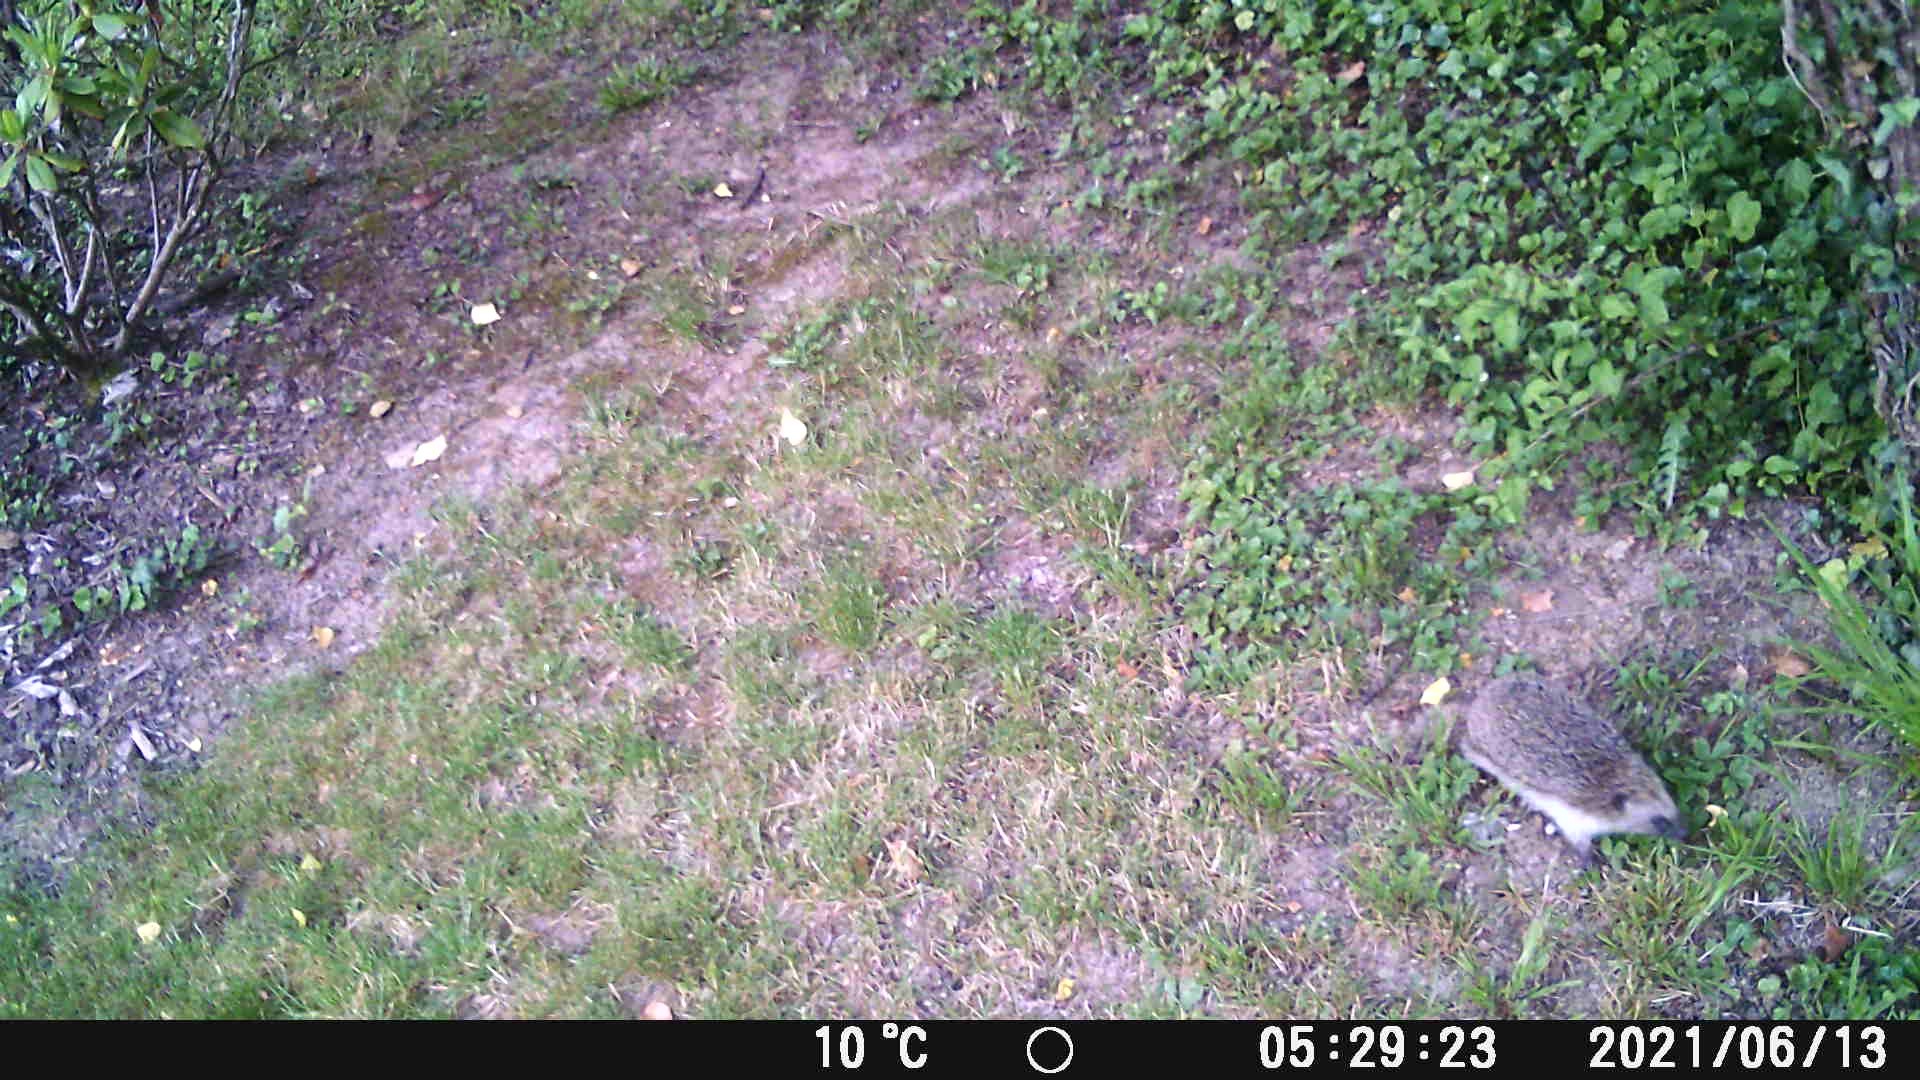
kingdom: Animalia
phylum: Chordata
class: Mammalia
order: Erinaceomorpha
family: Erinaceidae
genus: Erinaceus
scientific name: Erinaceus europaeus
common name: West european hedgehog
